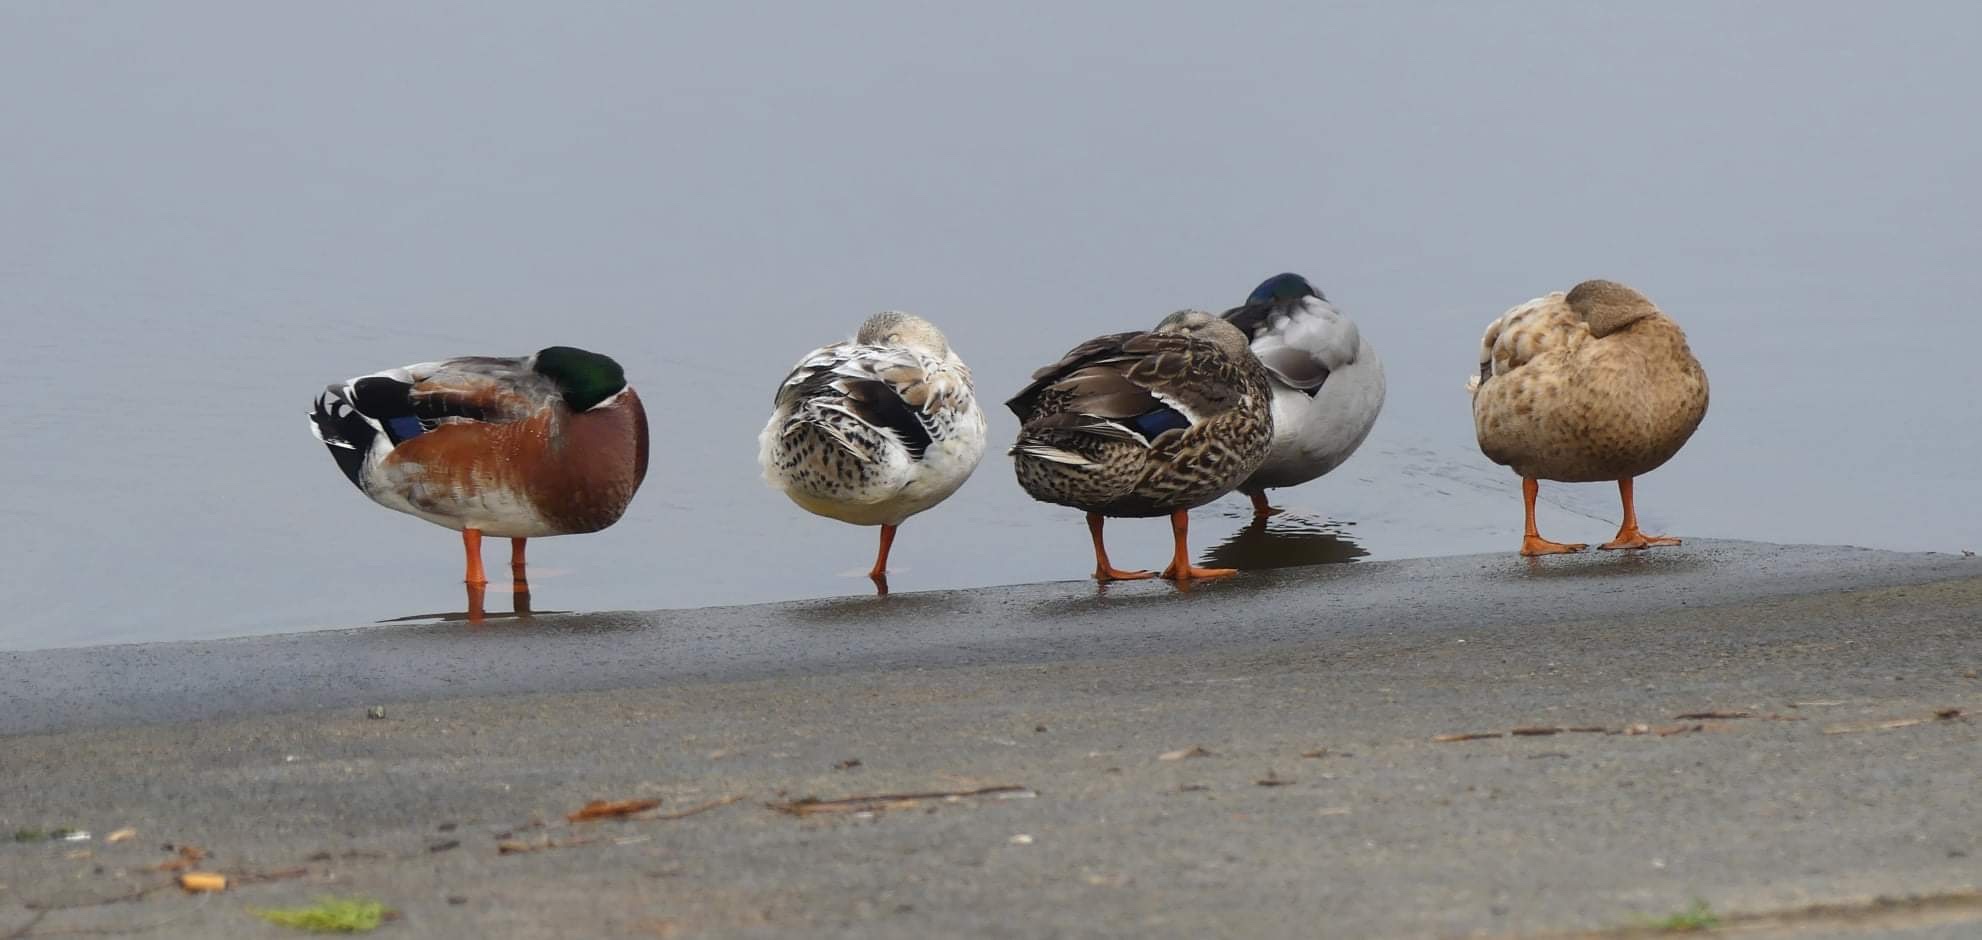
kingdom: Animalia
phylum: Chordata
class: Aves
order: Anseriformes
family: Anatidae
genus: Anas
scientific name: Anas platyrhynchos
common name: Mallard
